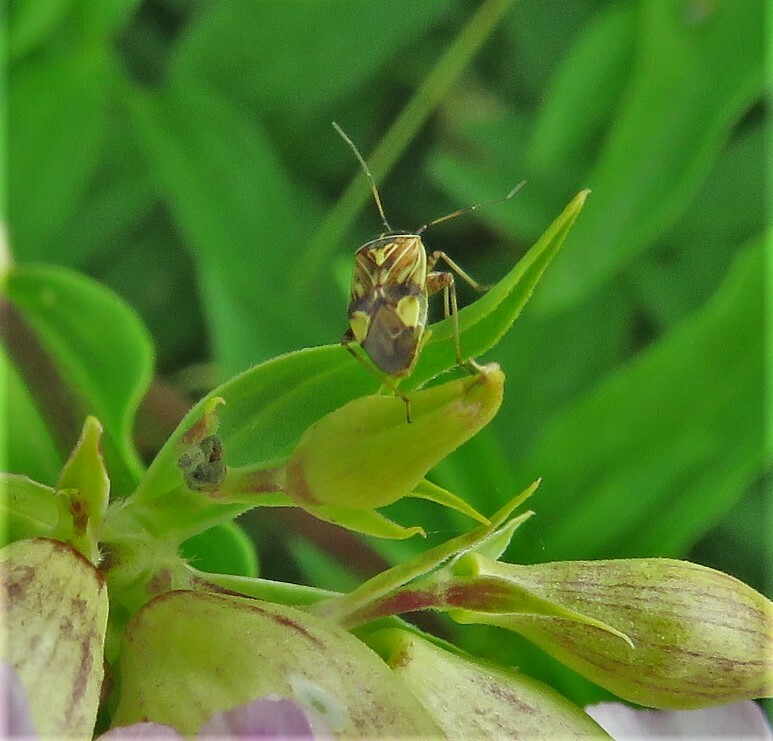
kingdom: Animalia
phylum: Arthropoda
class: Insecta
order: Hemiptera
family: Miridae
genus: Lygus
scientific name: Lygus lineolaris
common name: North american tarnished plant bug
